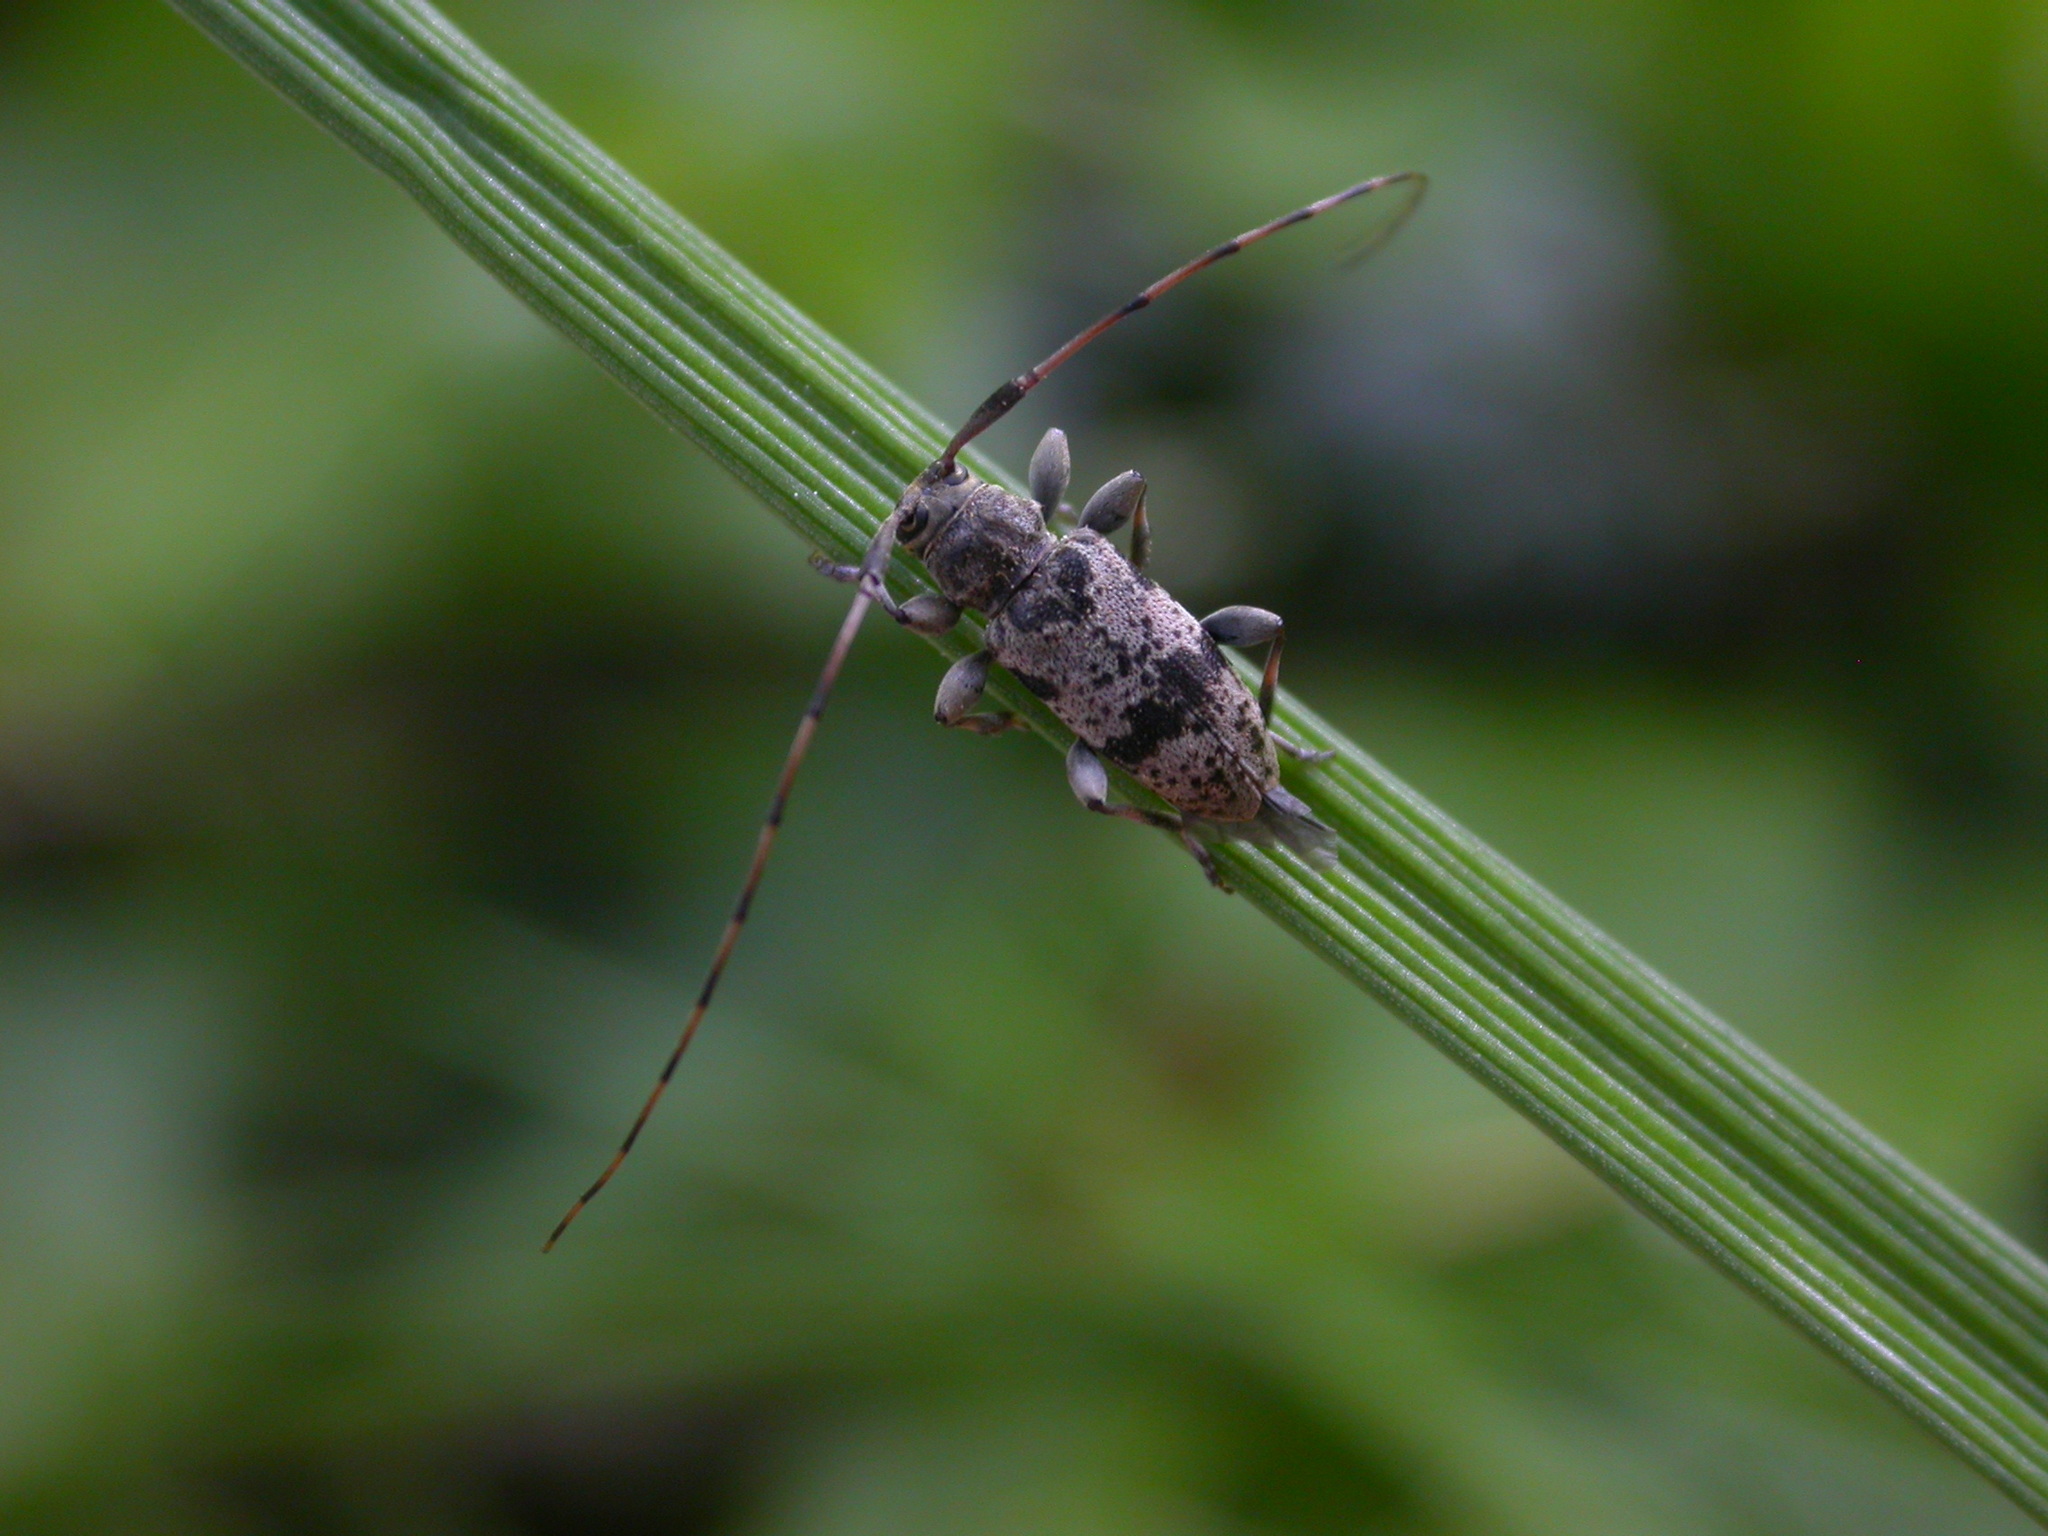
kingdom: Animalia
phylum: Arthropoda
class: Insecta
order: Coleoptera
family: Cerambycidae
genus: Leiopus
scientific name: Leiopus femoratus
